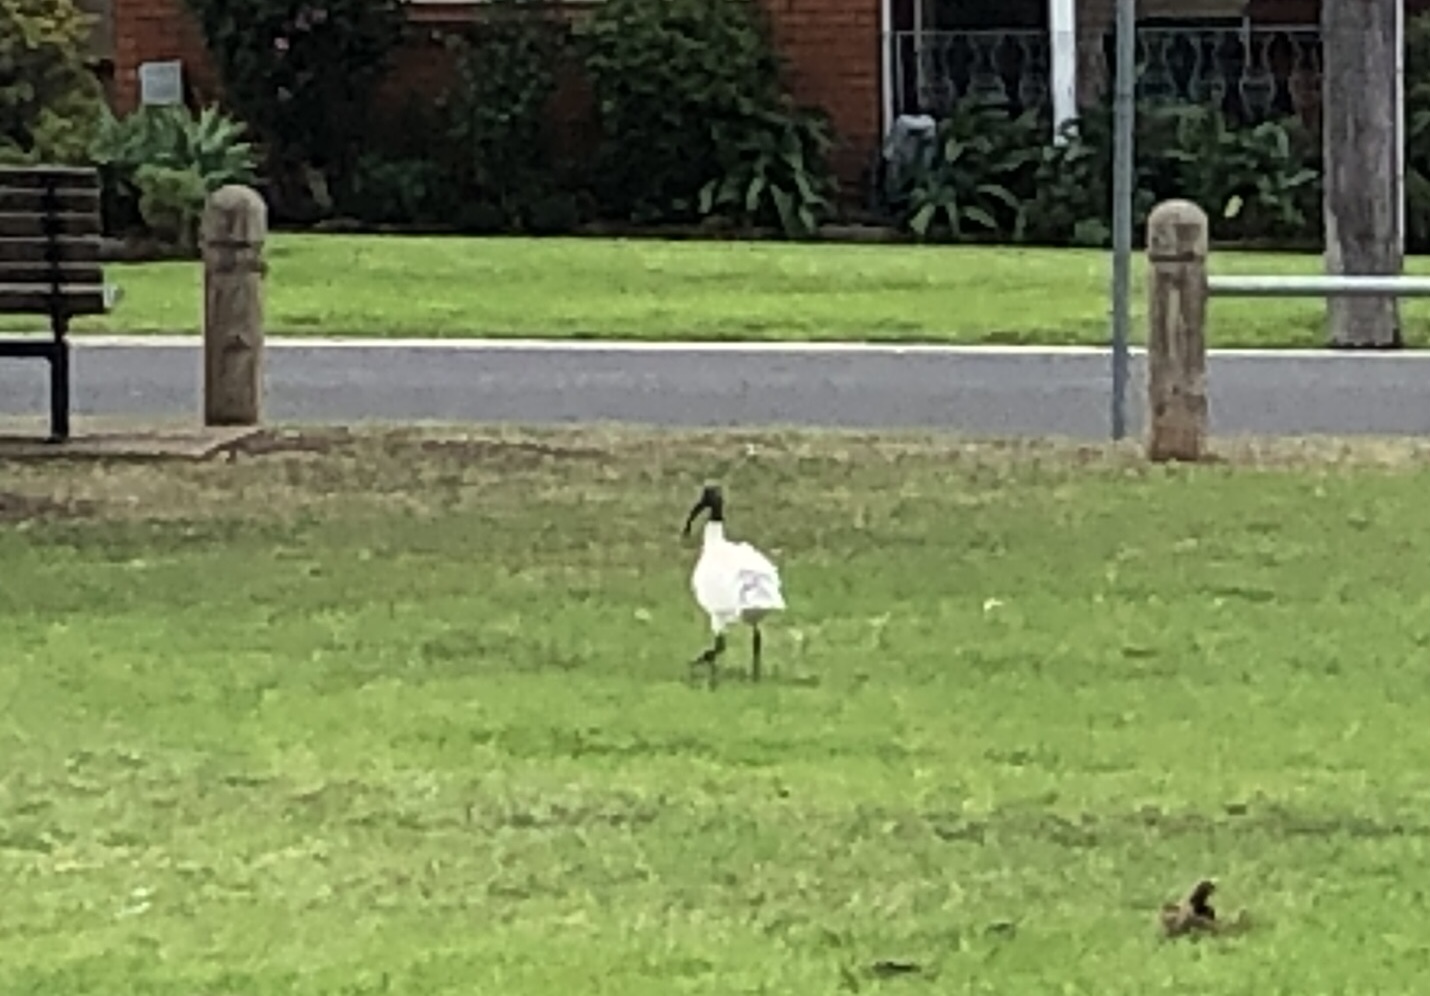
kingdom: Animalia
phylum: Chordata
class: Aves
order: Pelecaniformes
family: Threskiornithidae
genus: Threskiornis
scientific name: Threskiornis molucca
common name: Australian white ibis
